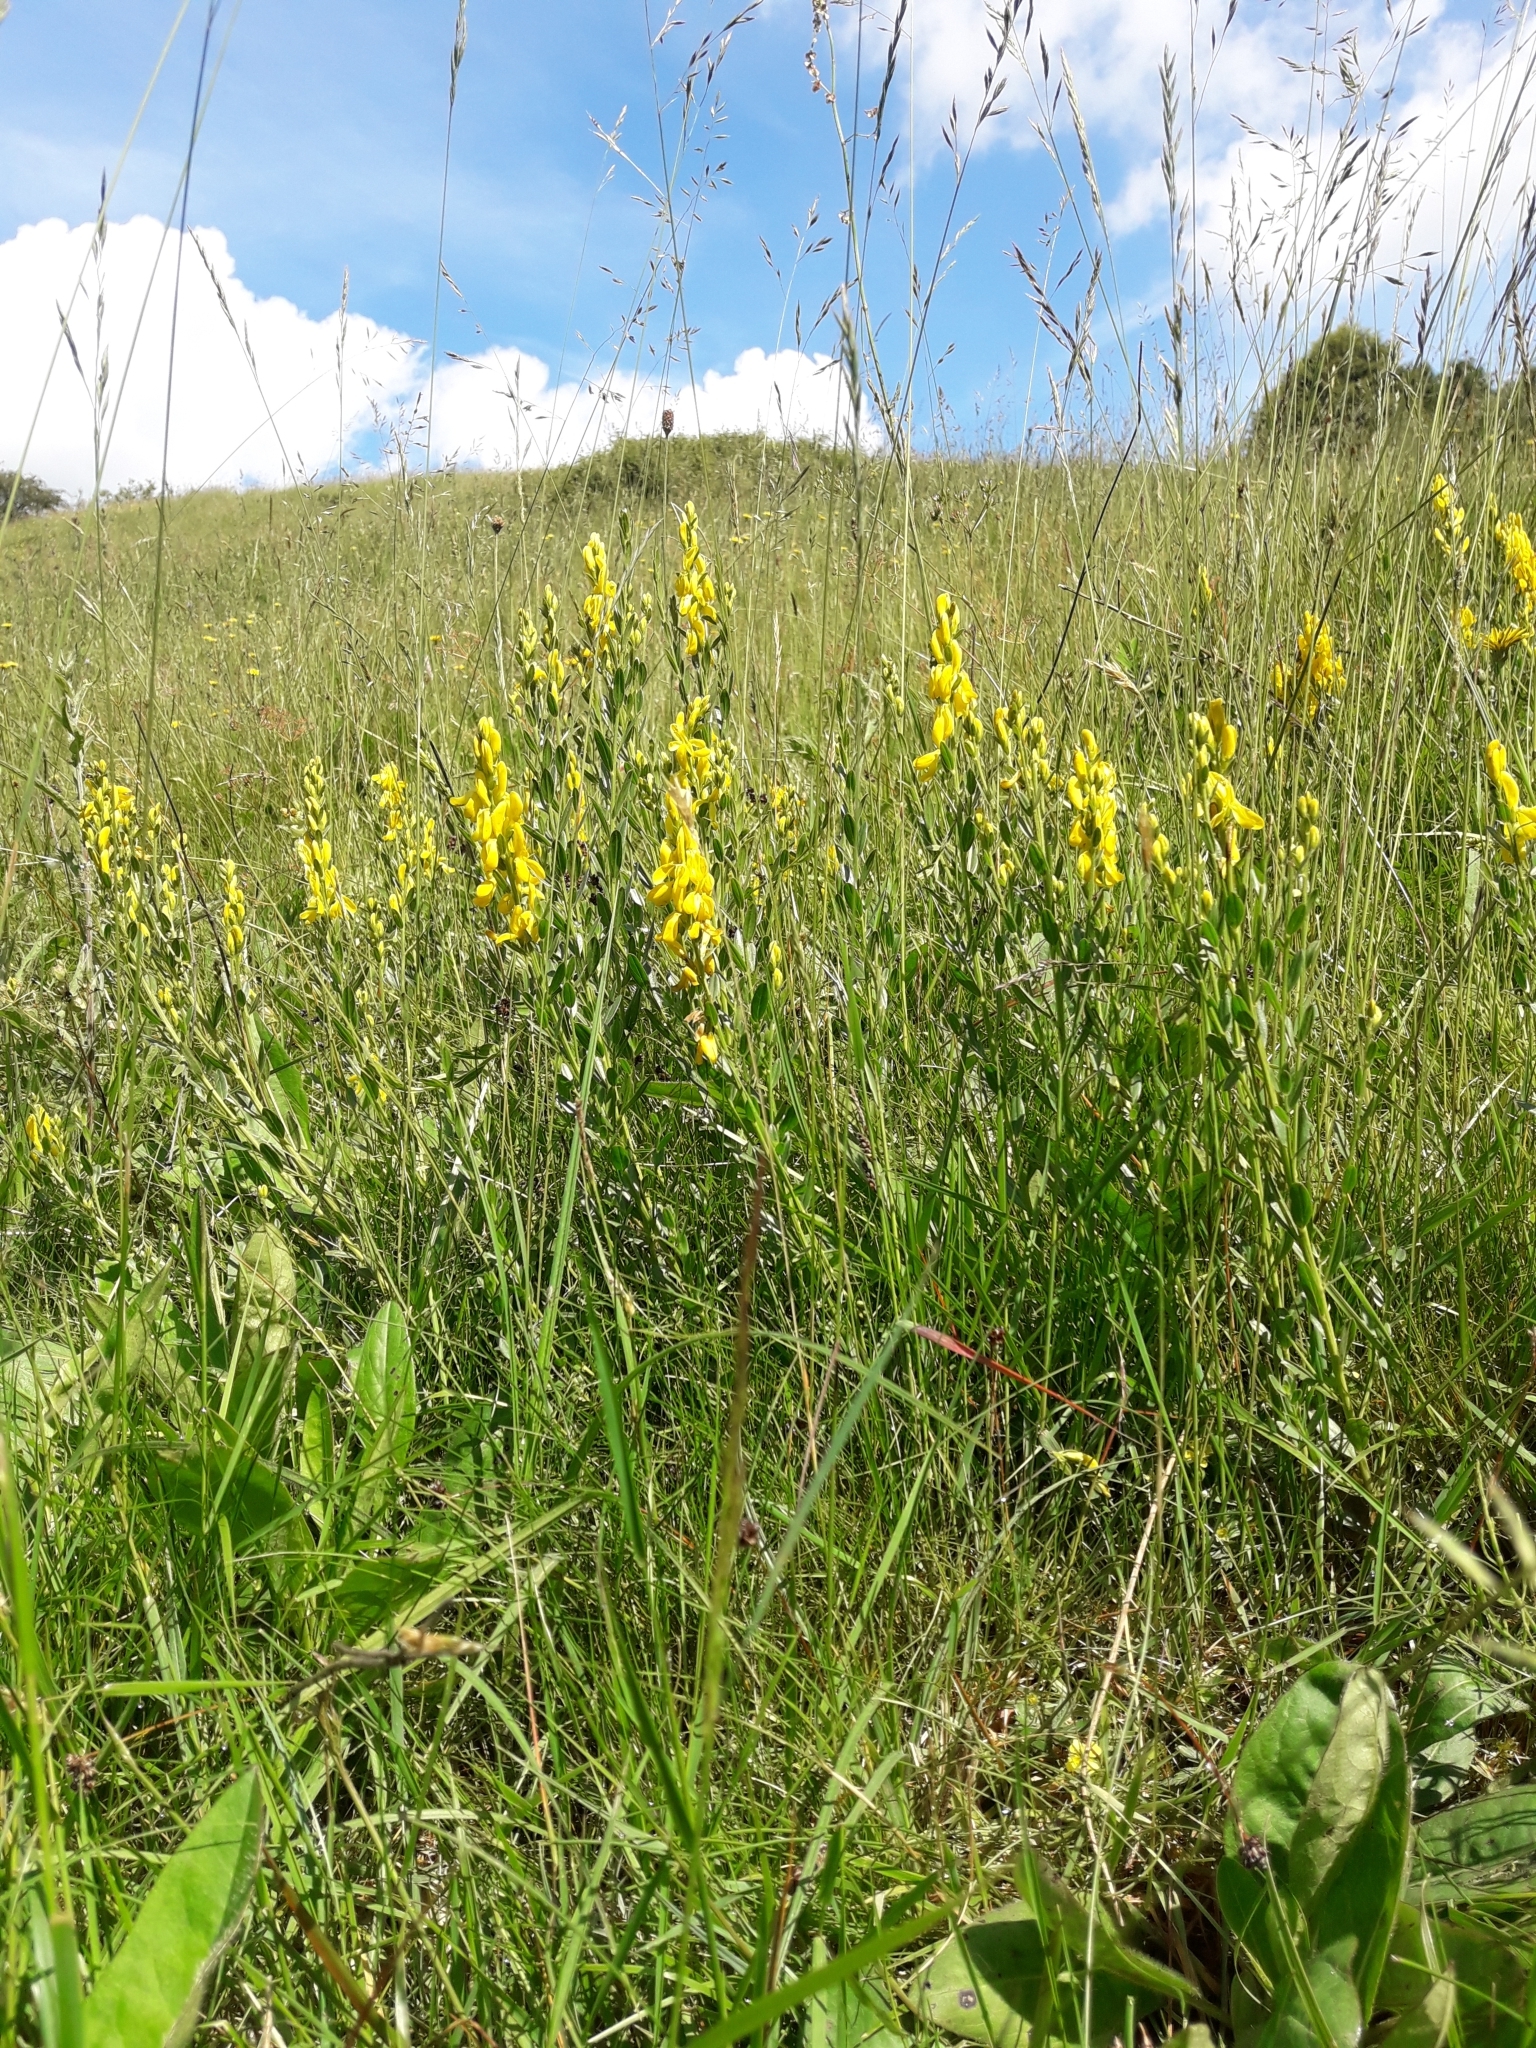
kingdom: Plantae
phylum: Tracheophyta
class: Magnoliopsida
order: Fabales
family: Fabaceae
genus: Genista
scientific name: Genista tinctoria
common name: Dyer's greenweed
